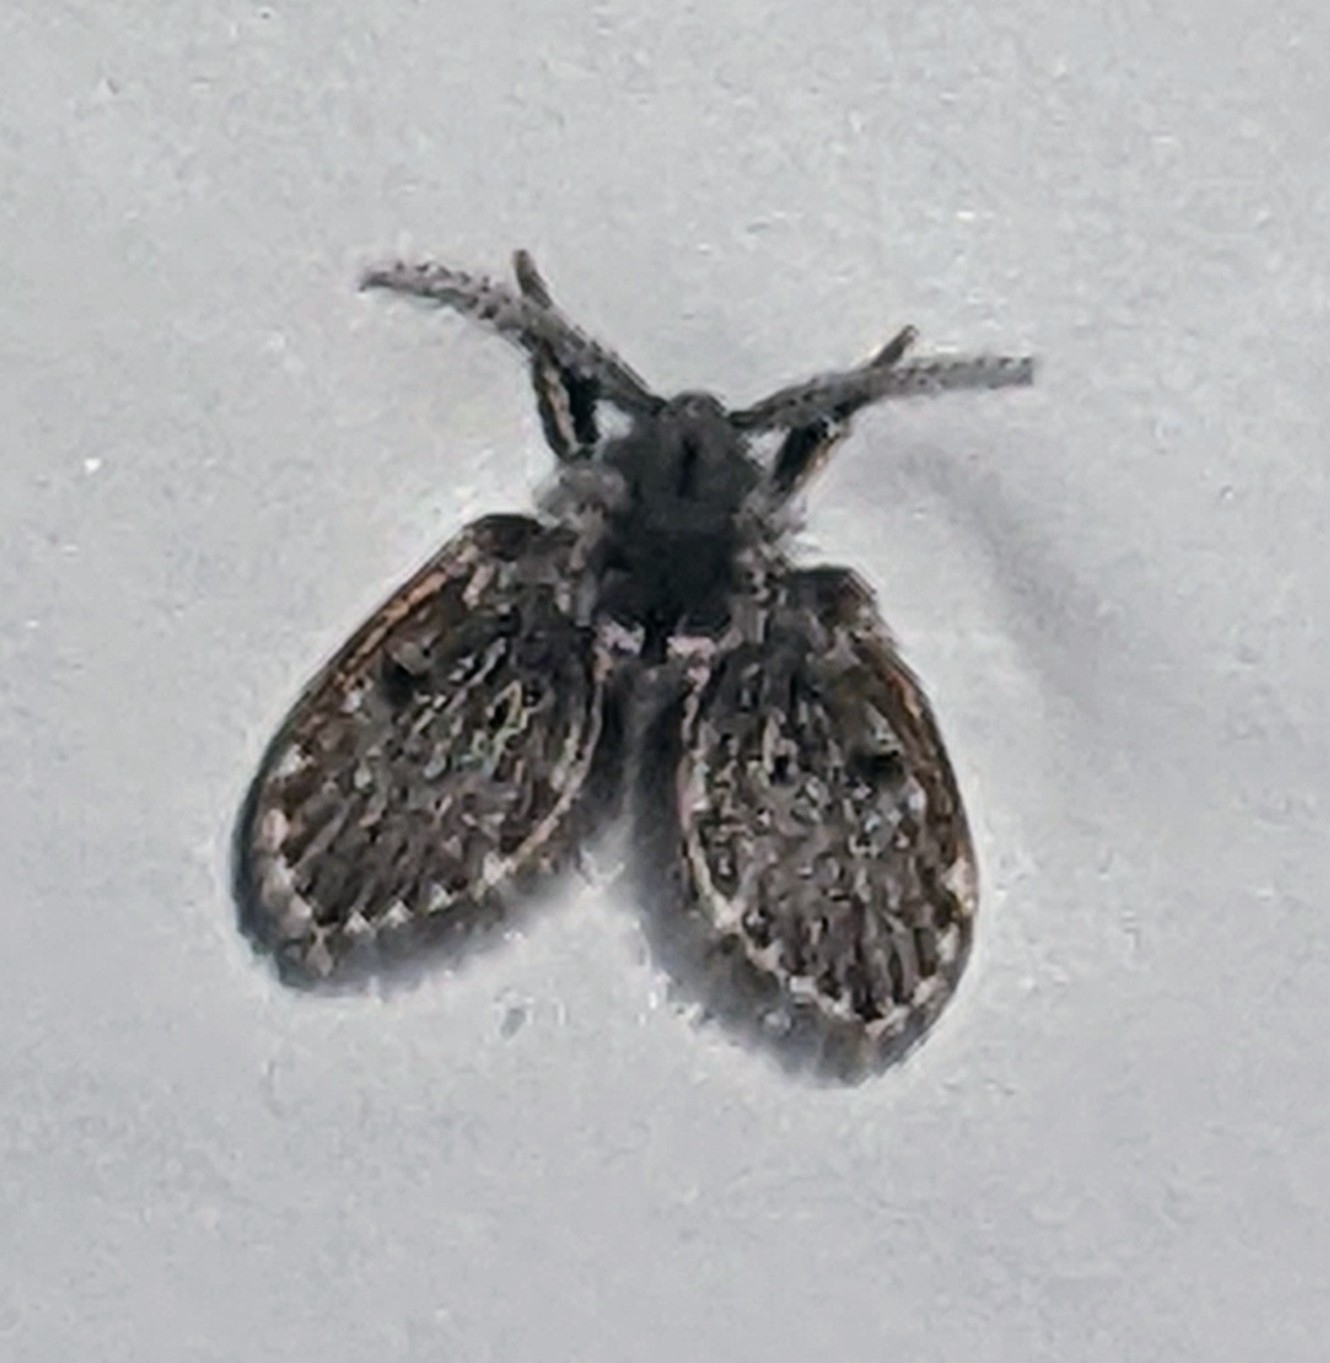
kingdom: Animalia
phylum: Arthropoda
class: Insecta
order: Diptera
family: Psychodidae
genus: Clogmia
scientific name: Clogmia albipunctatus
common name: White-spotted moth fly
